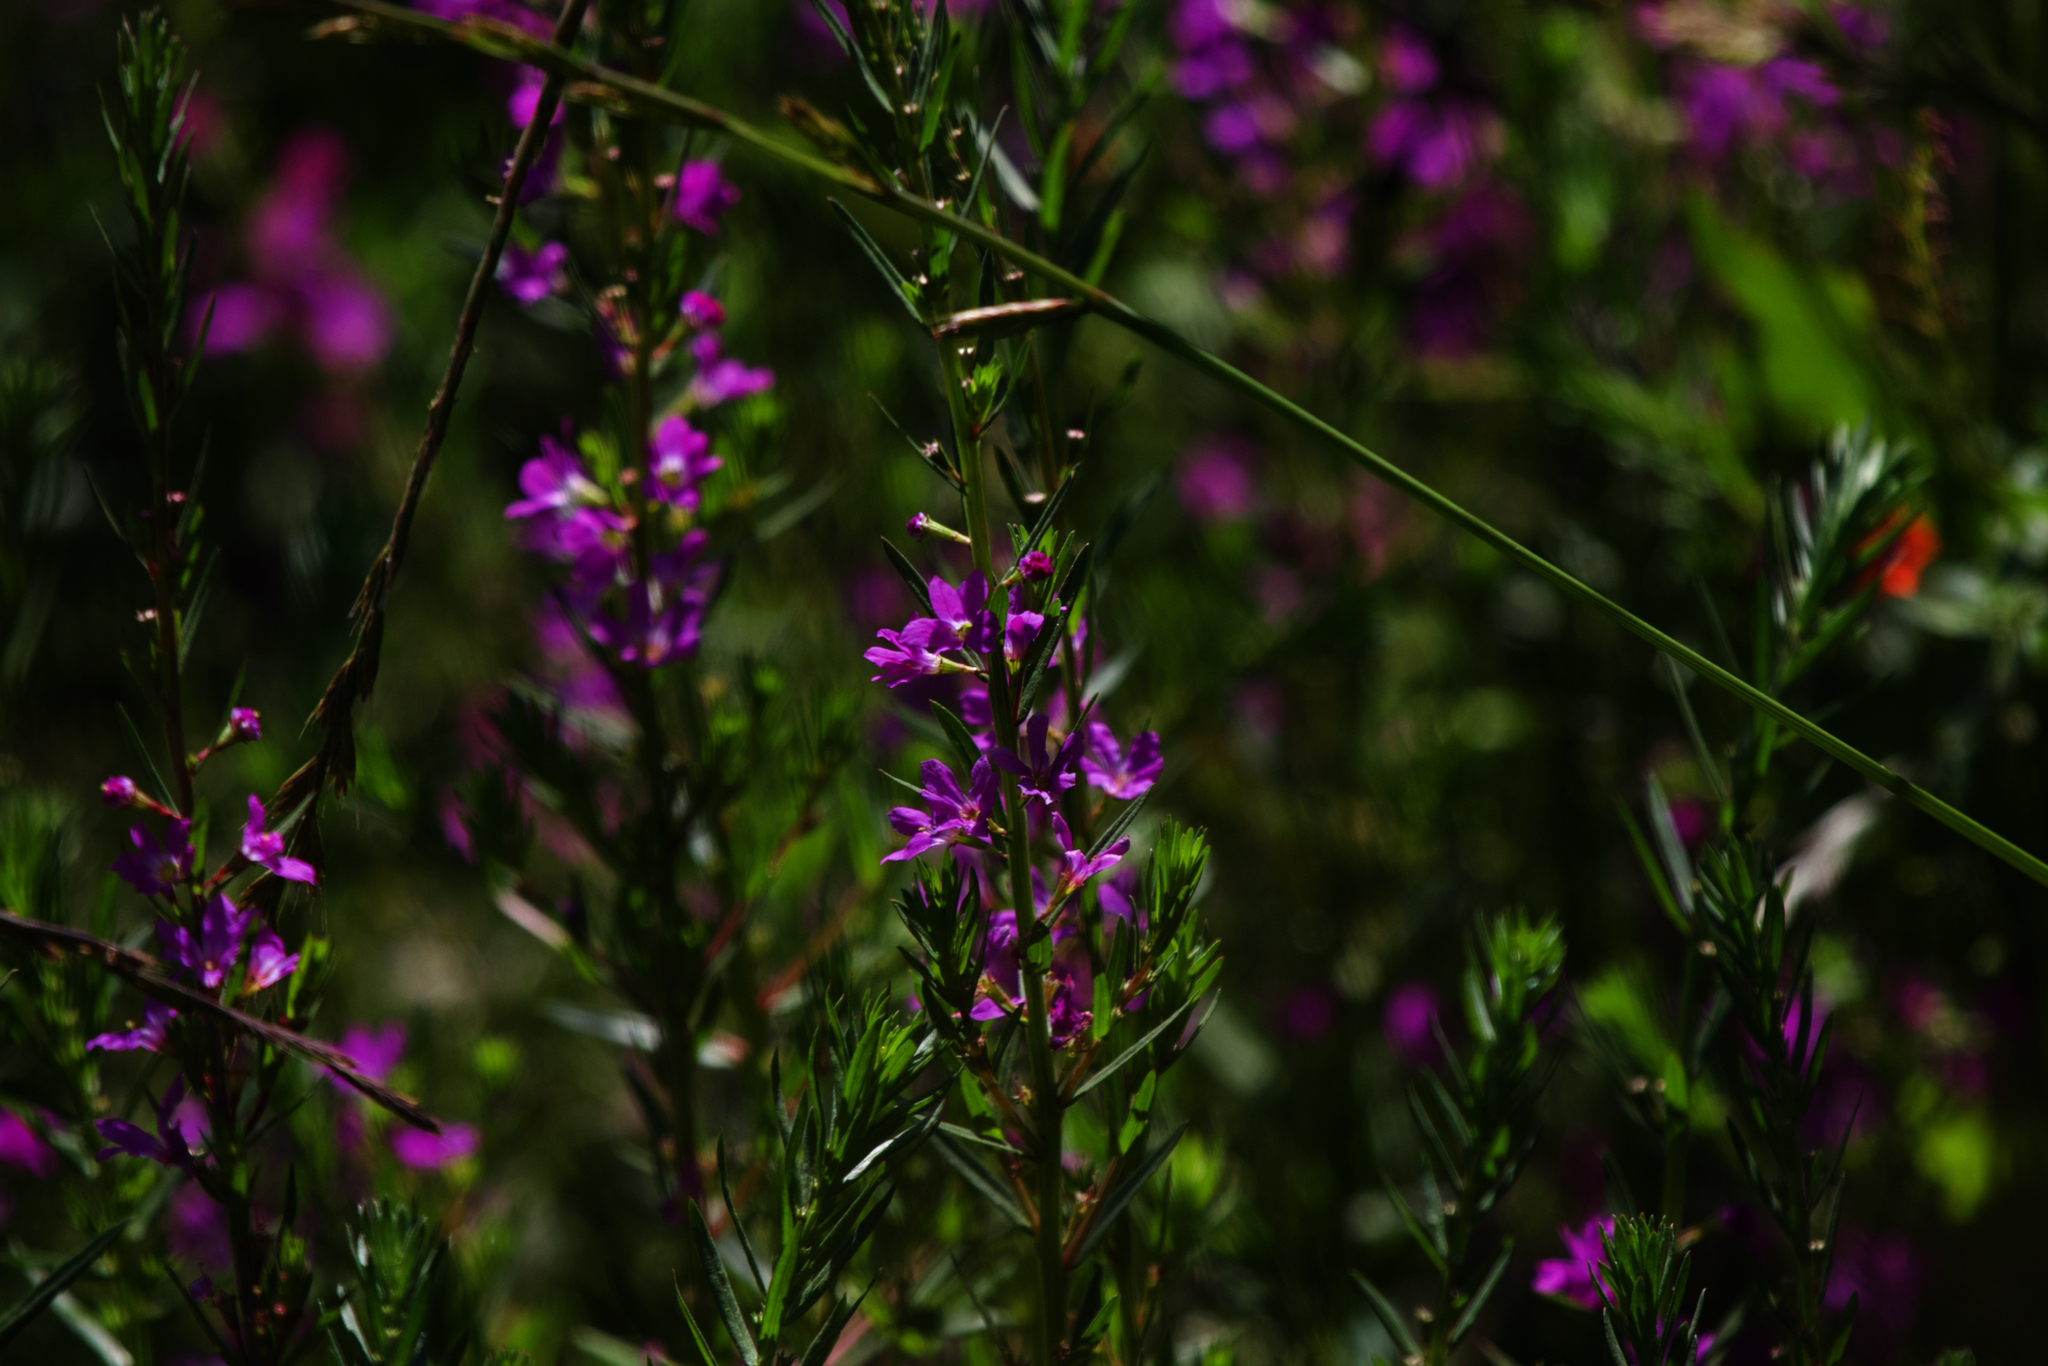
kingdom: Plantae
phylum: Tracheophyta
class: Magnoliopsida
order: Myrtales
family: Lythraceae
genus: Lythrum
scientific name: Lythrum junceum
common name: False grass-poly
